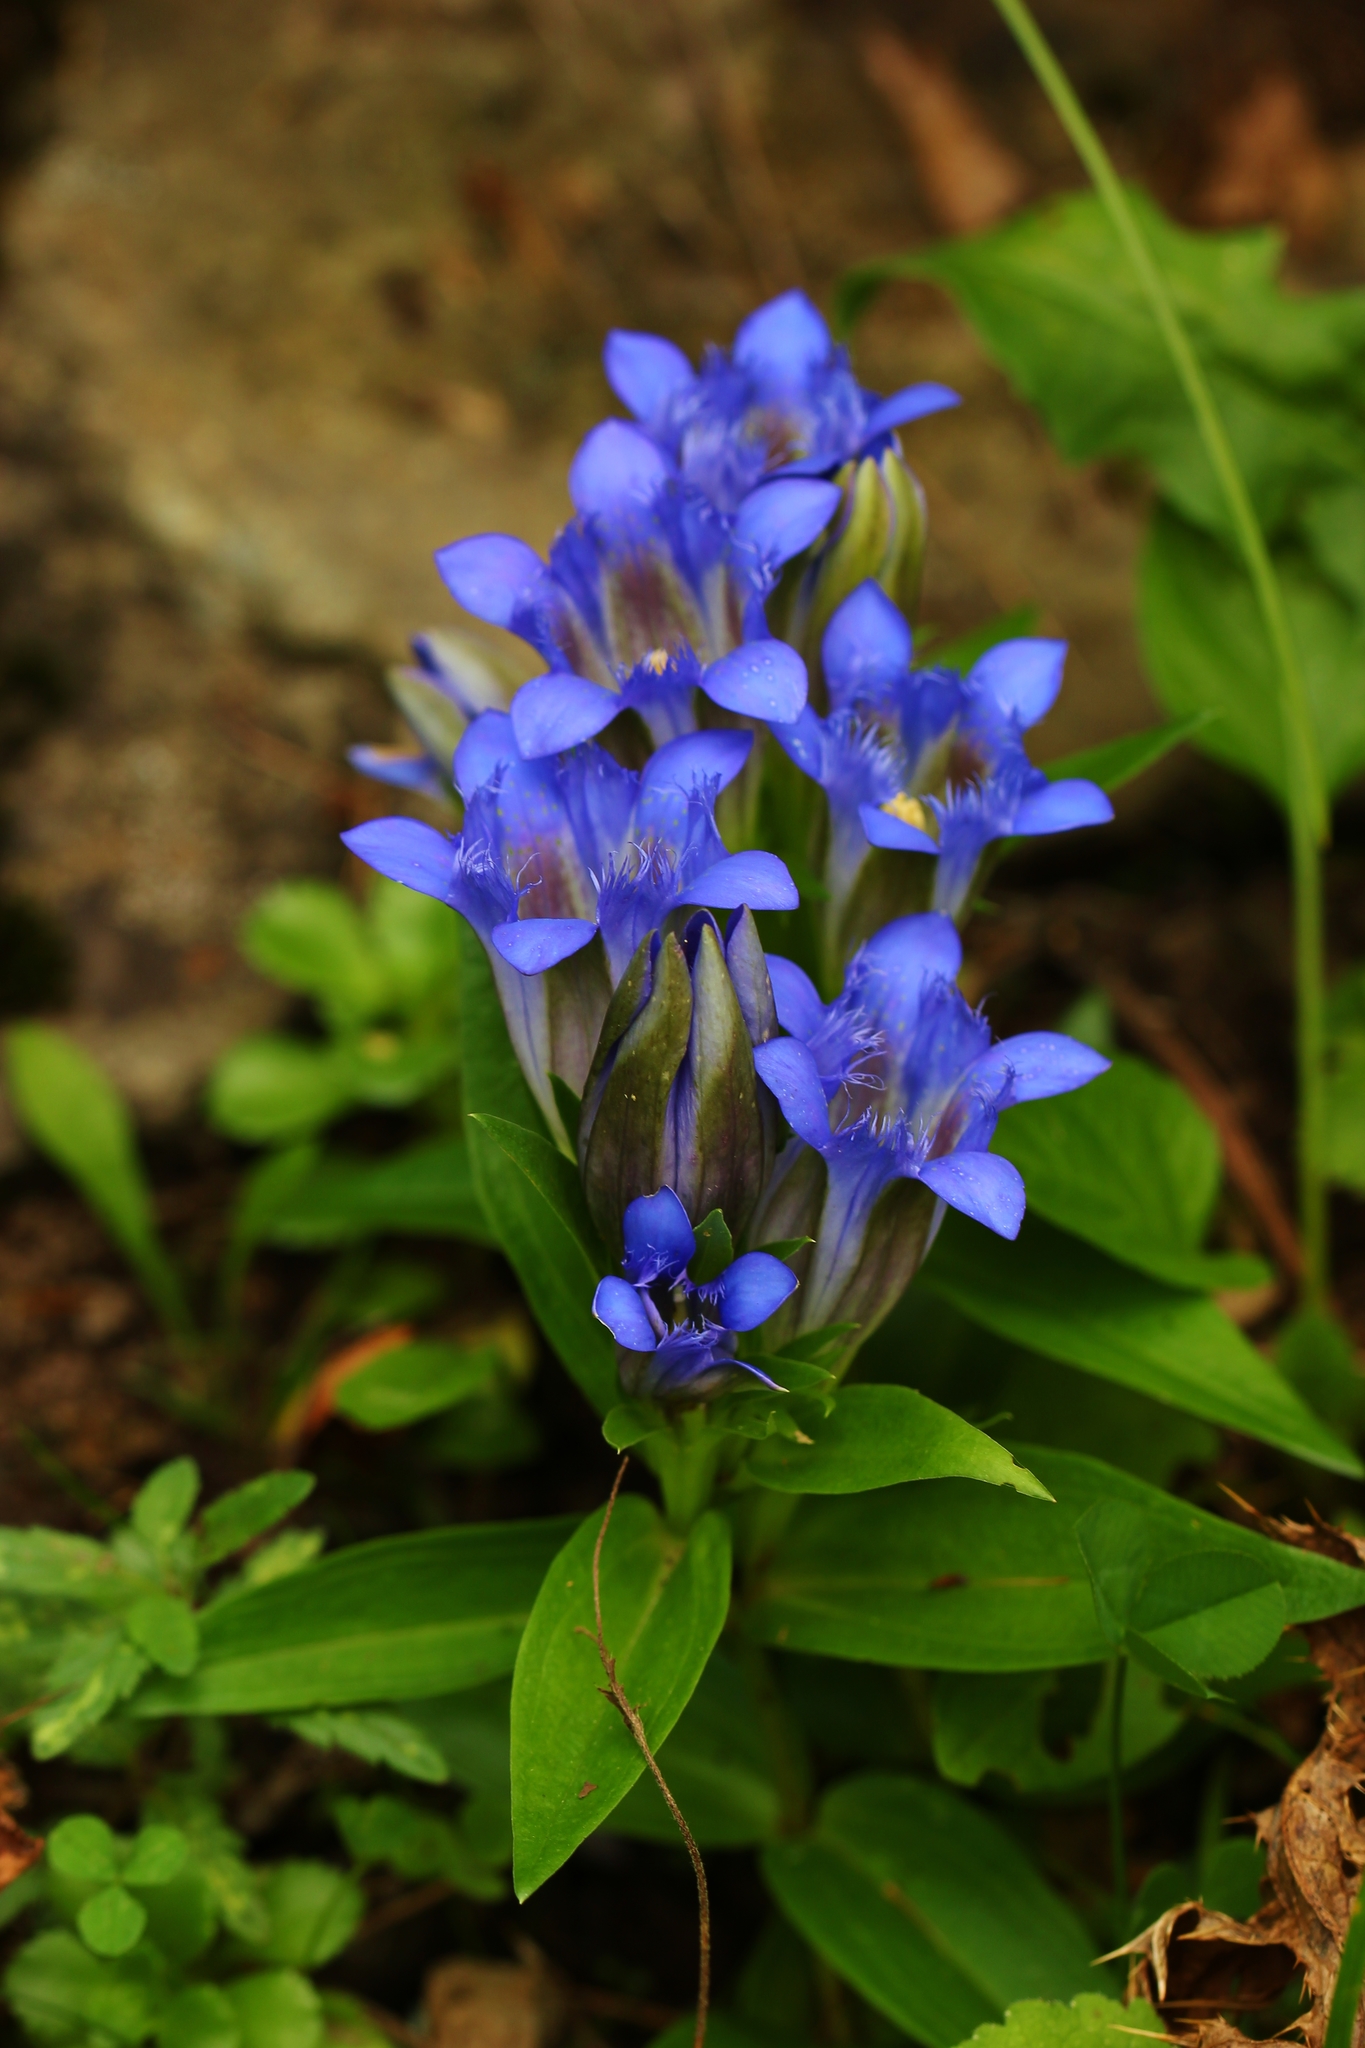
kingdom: Plantae
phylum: Tracheophyta
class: Magnoliopsida
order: Gentianales
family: Gentianaceae
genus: Gentiana
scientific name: Gentiana septemfida
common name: Crested gentian
